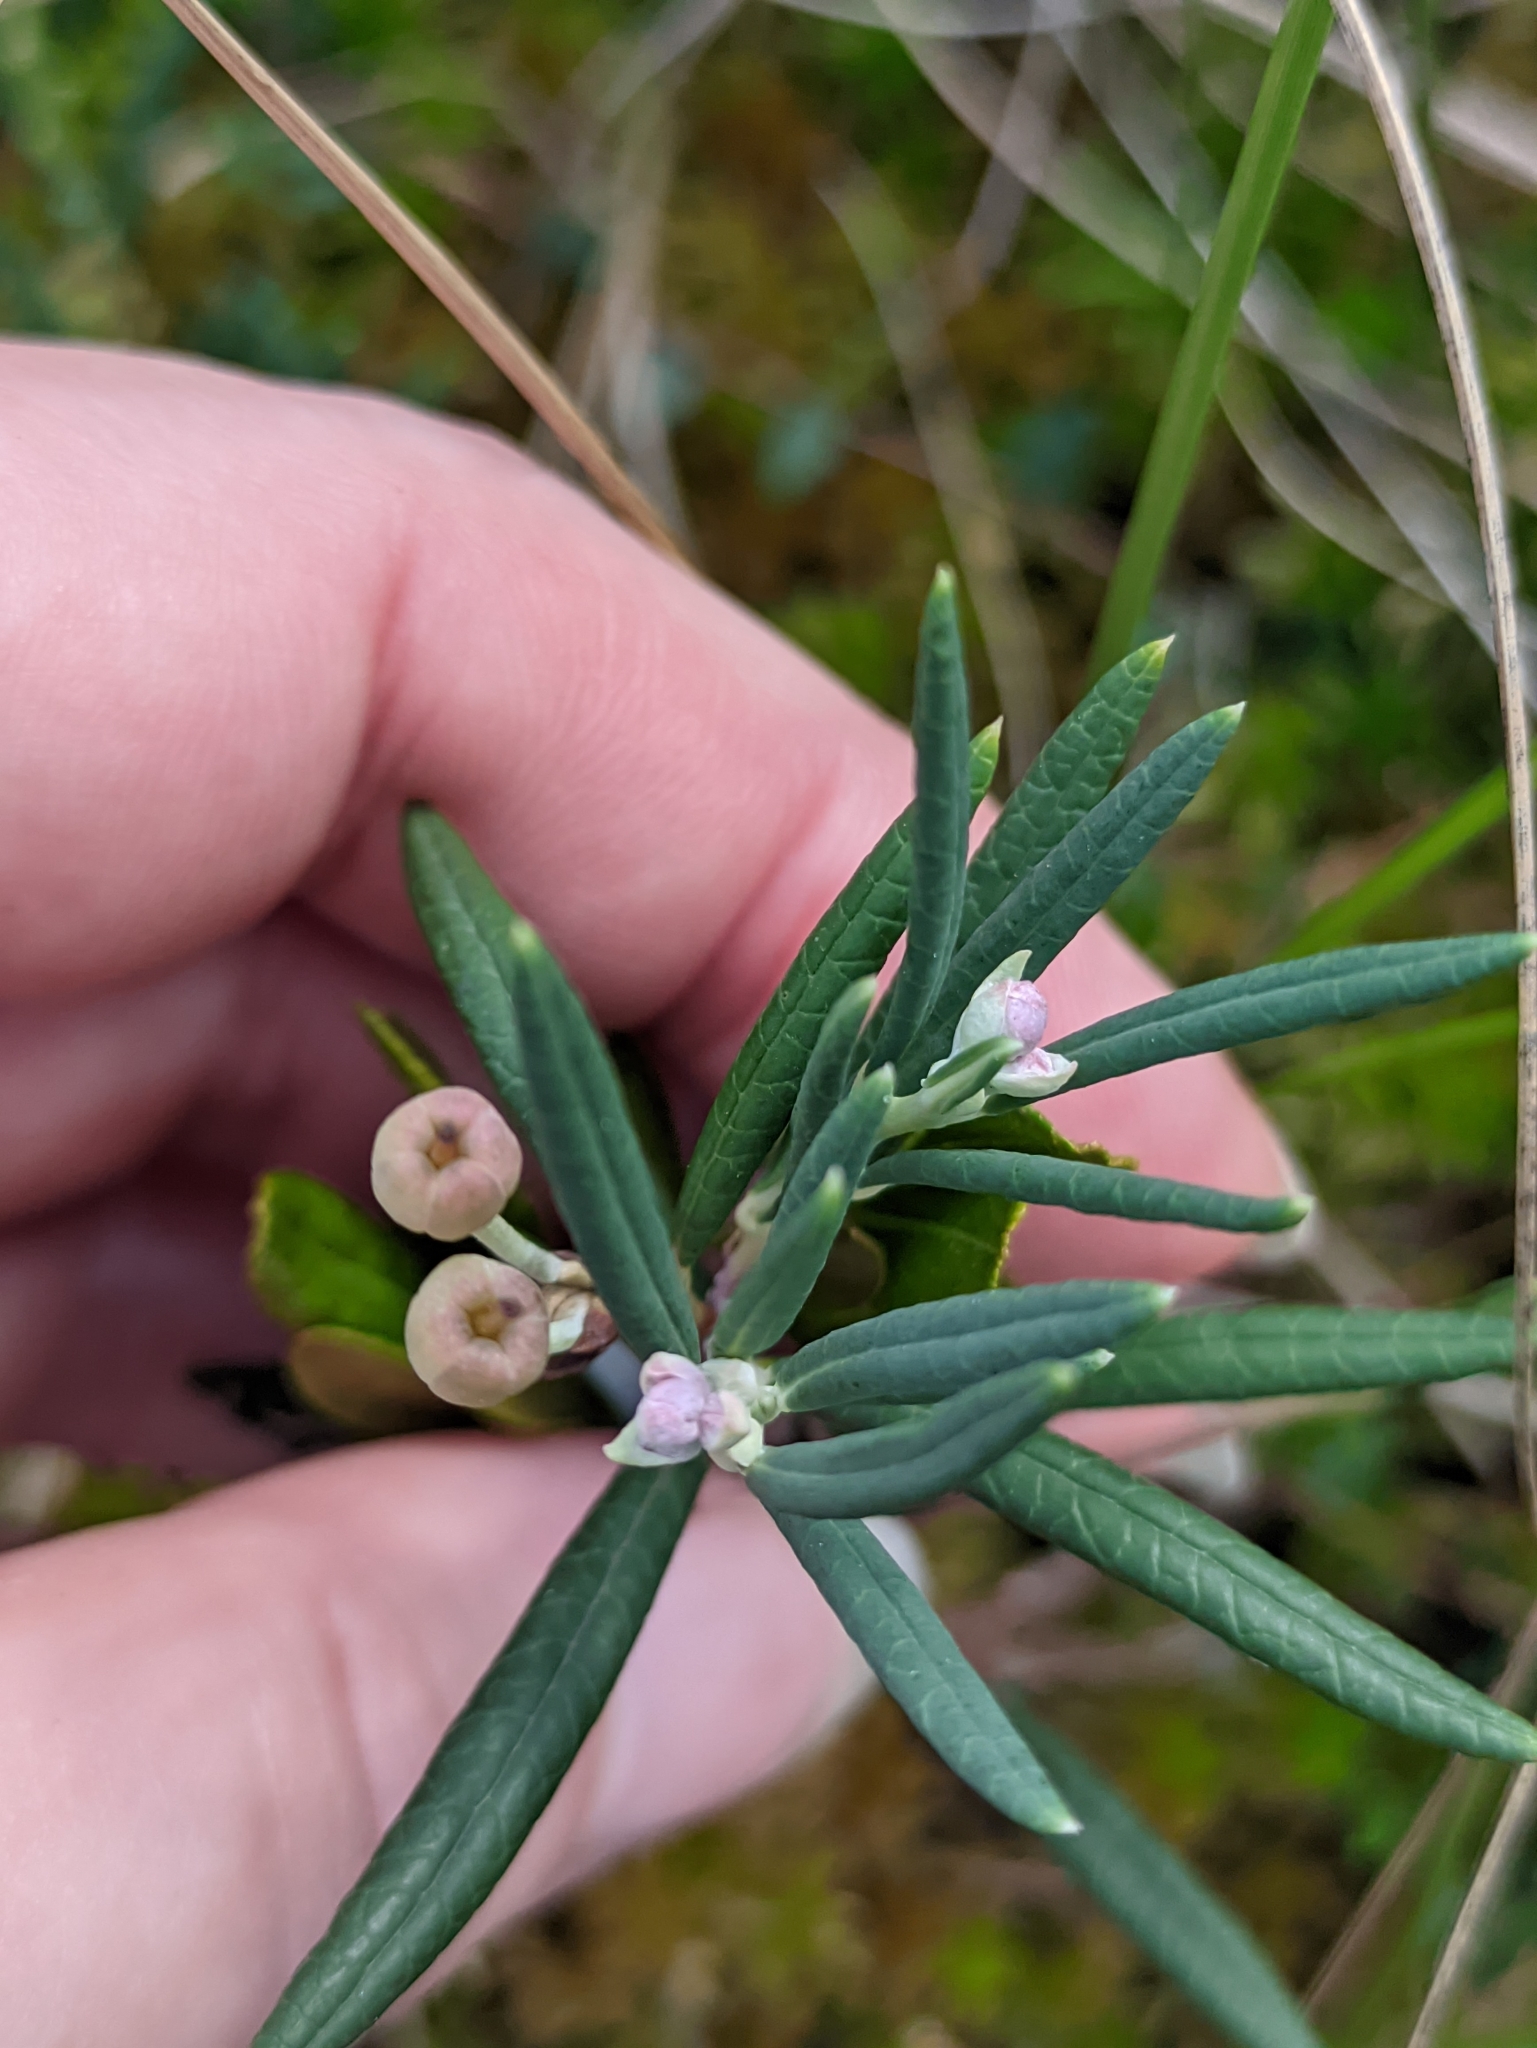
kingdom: Plantae
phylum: Tracheophyta
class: Magnoliopsida
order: Ericales
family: Ericaceae
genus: Andromeda
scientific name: Andromeda polifolia
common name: Bog-rosemary
